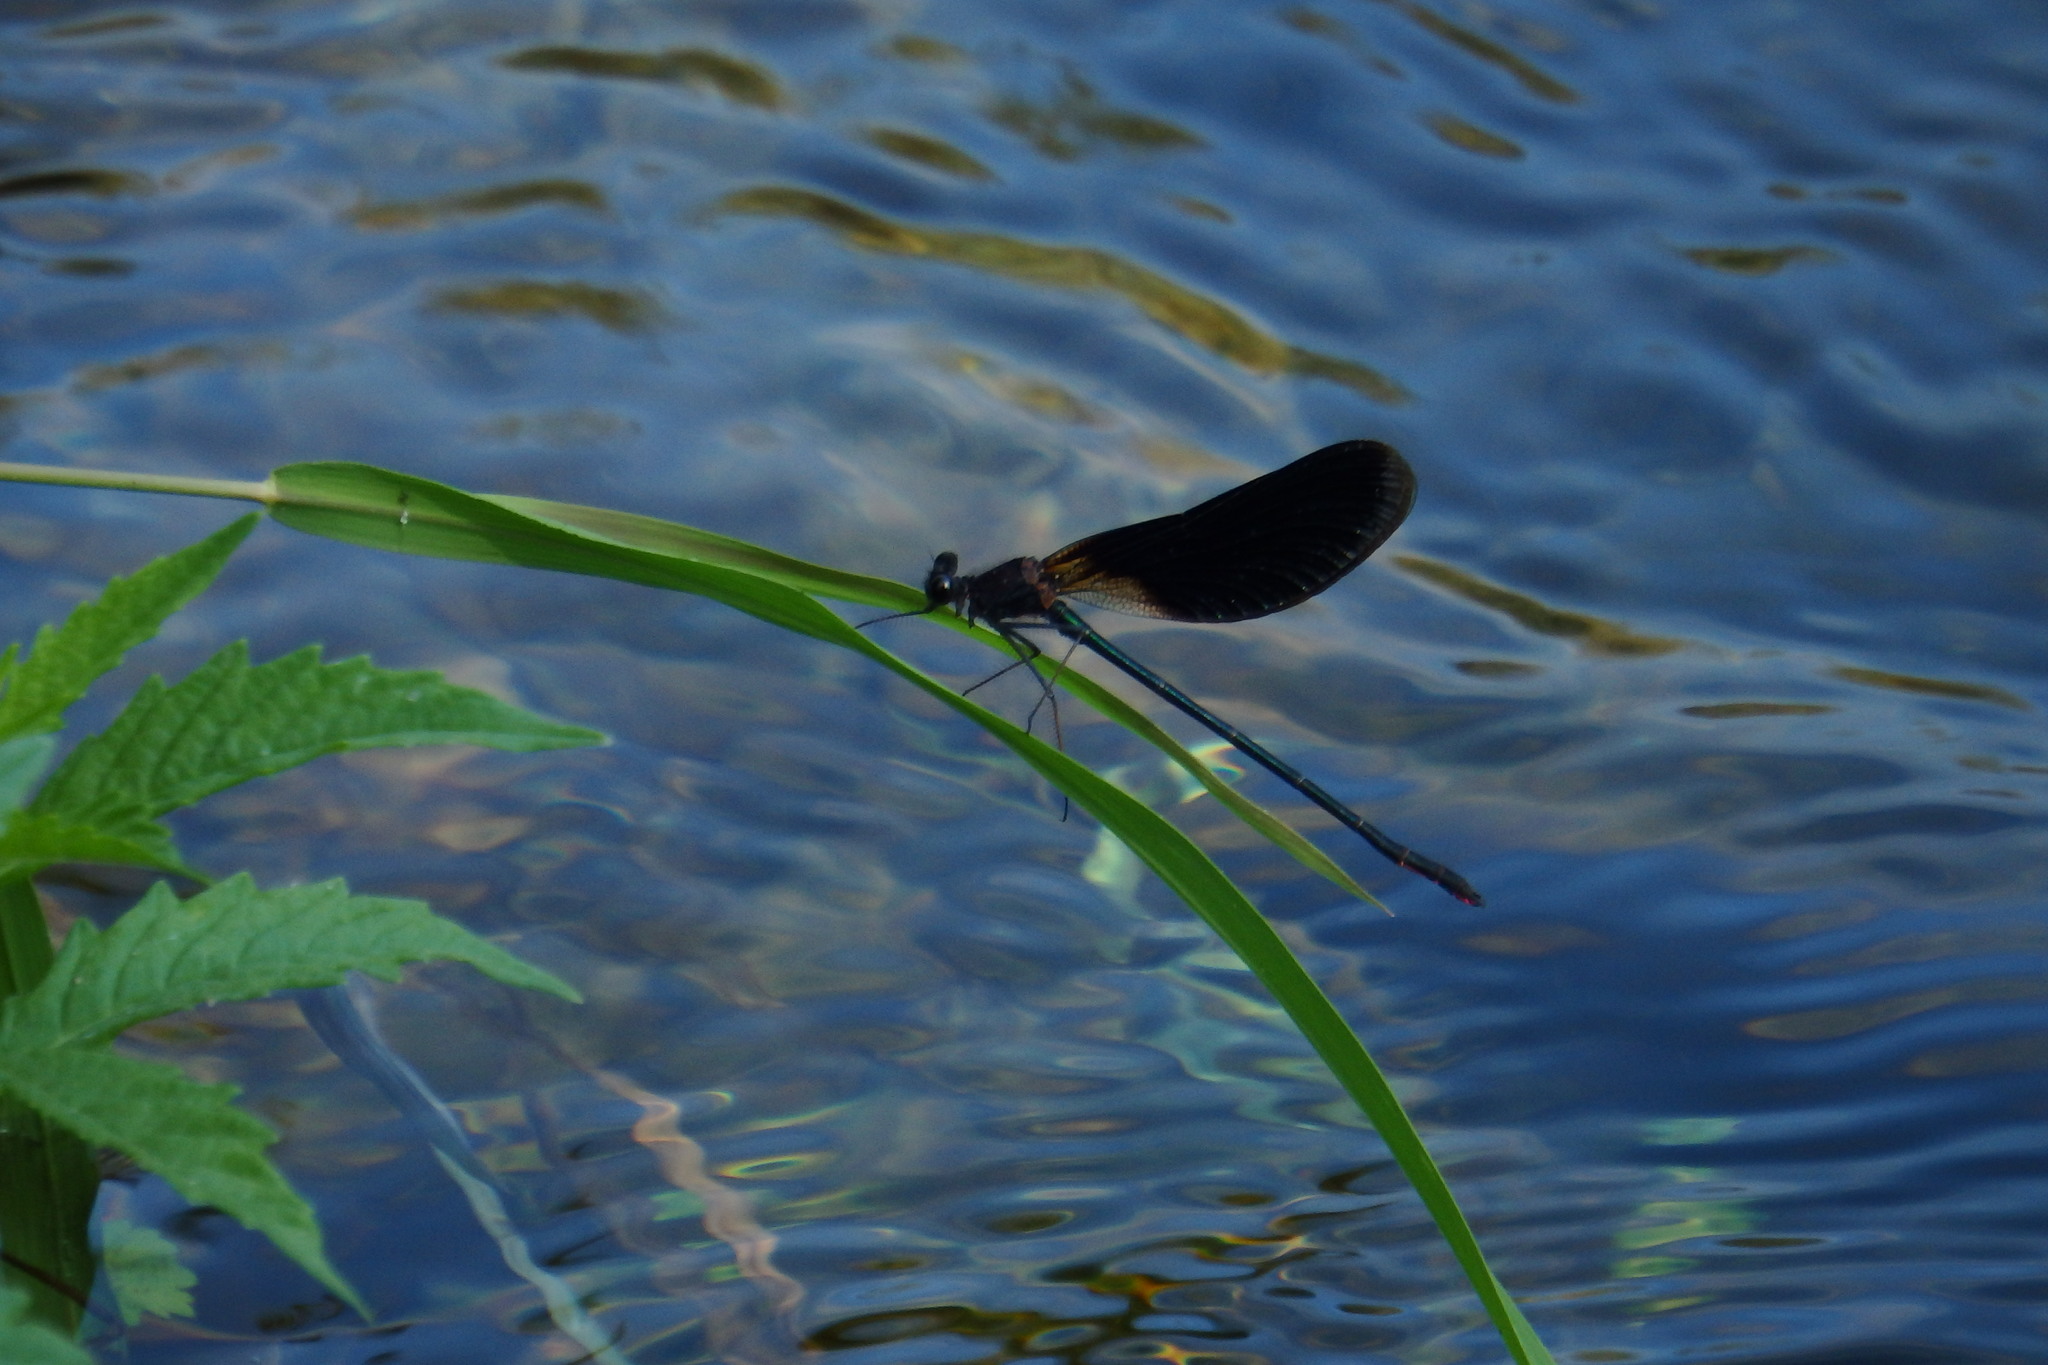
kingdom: Animalia
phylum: Arthropoda
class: Insecta
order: Odonata
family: Calopterygidae
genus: Calopteryx
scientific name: Calopteryx haemorrhoidalis
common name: Copper demoiselle
